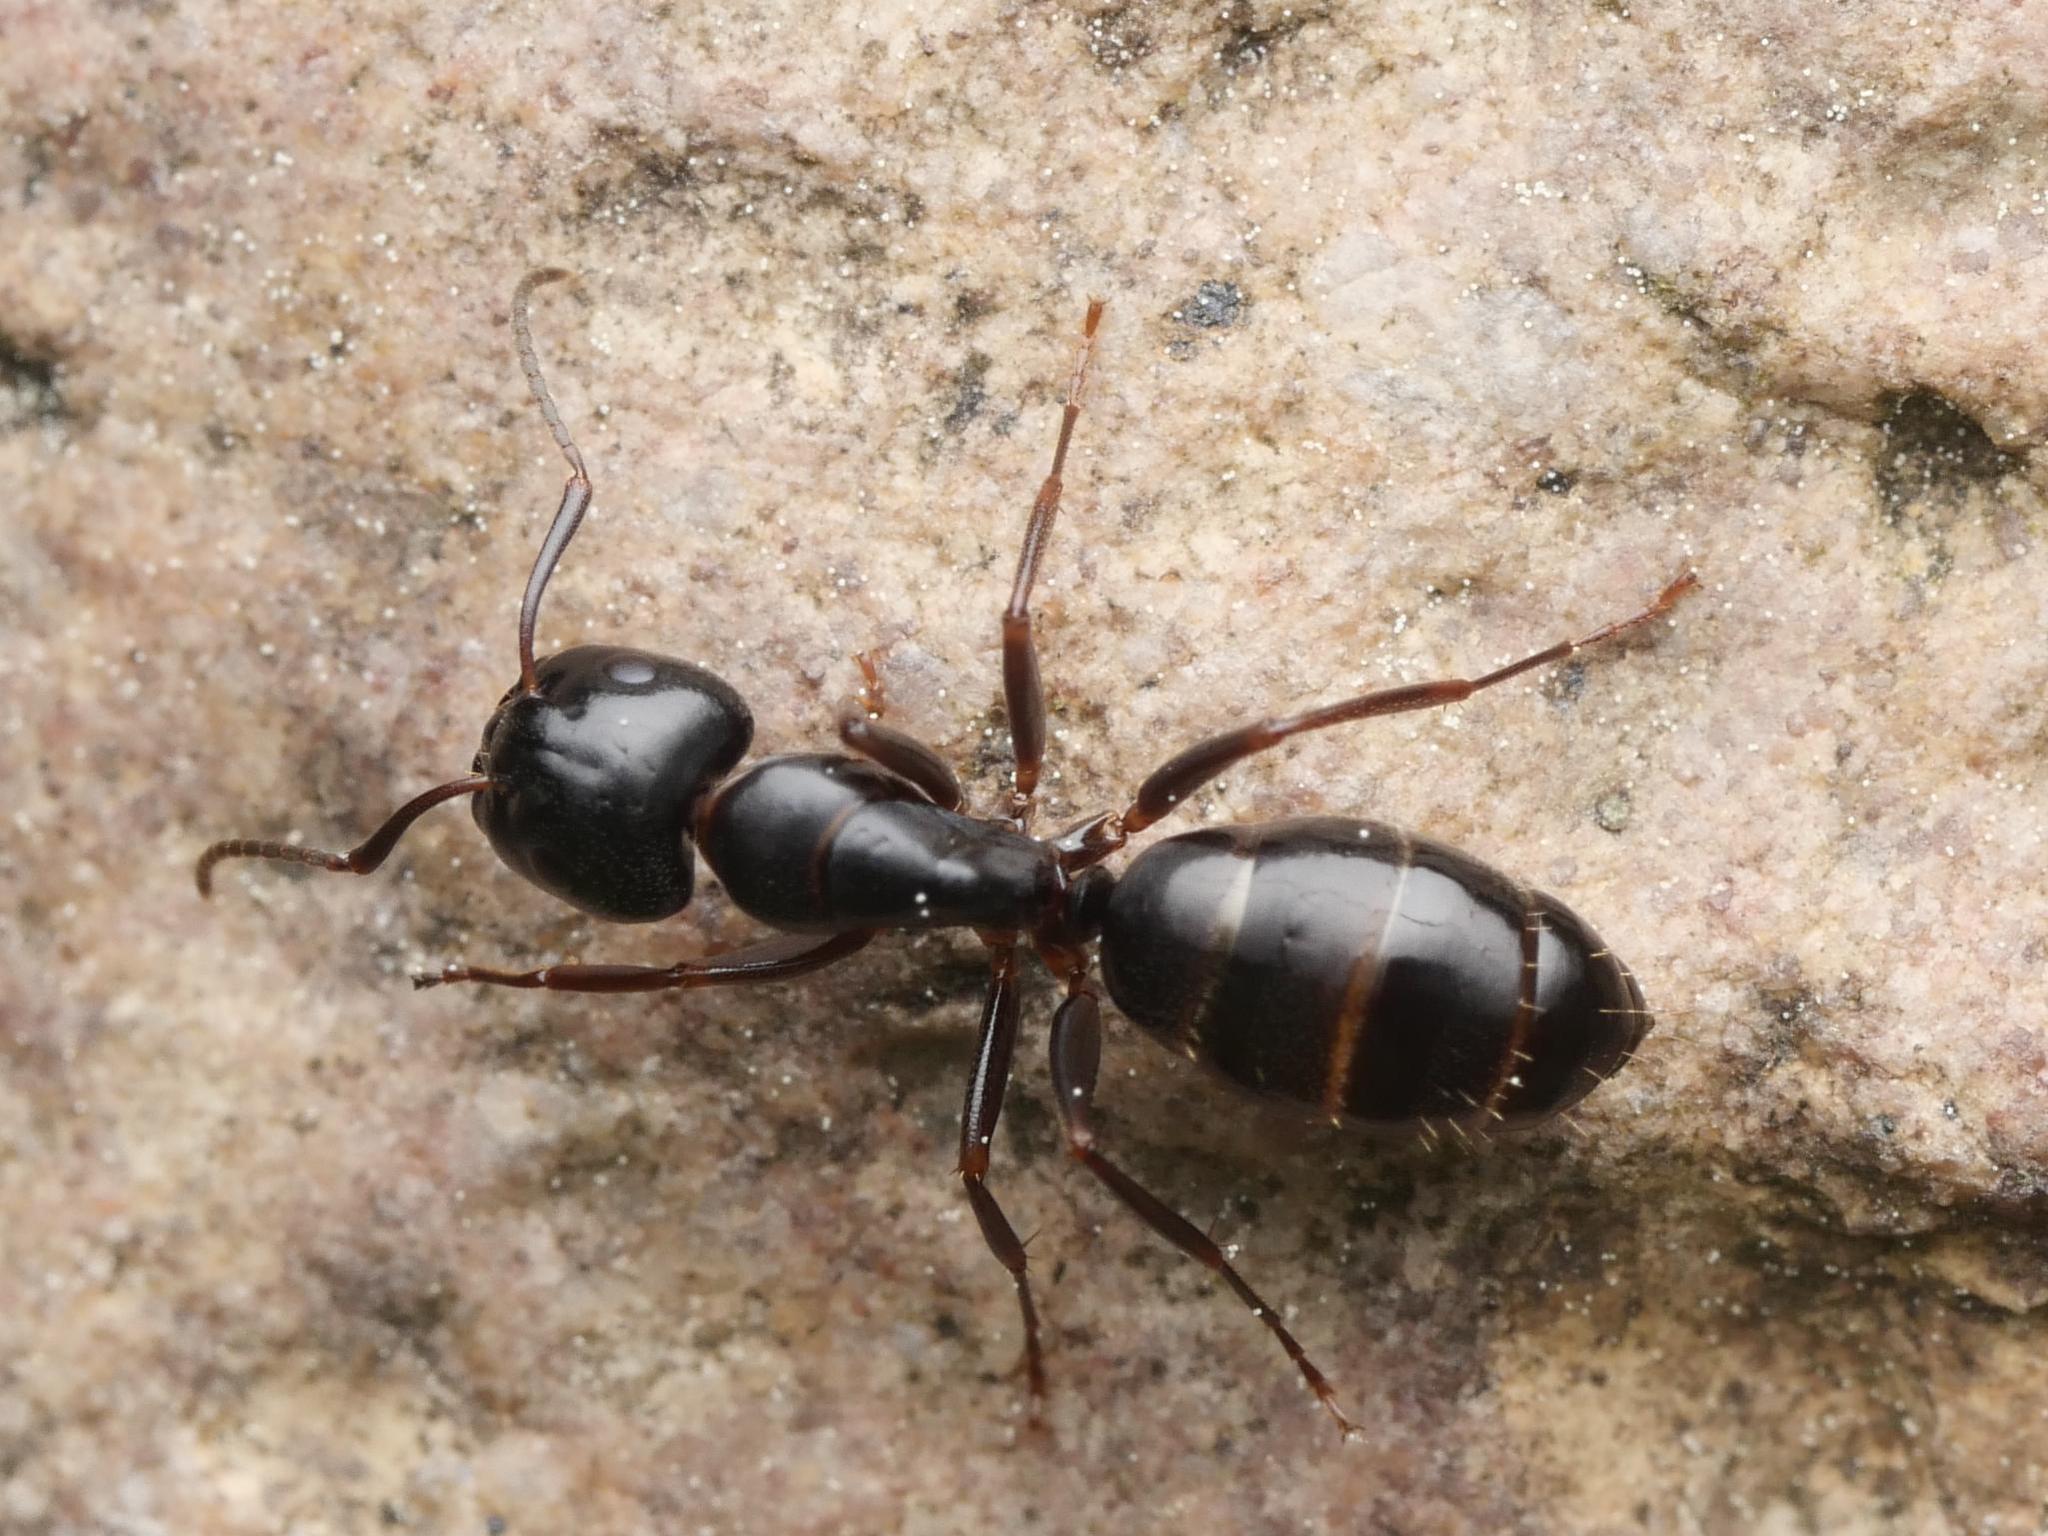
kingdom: Animalia
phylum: Arthropoda
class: Insecta
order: Hymenoptera
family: Formicidae
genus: Camponotus
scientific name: Camponotus fallax
